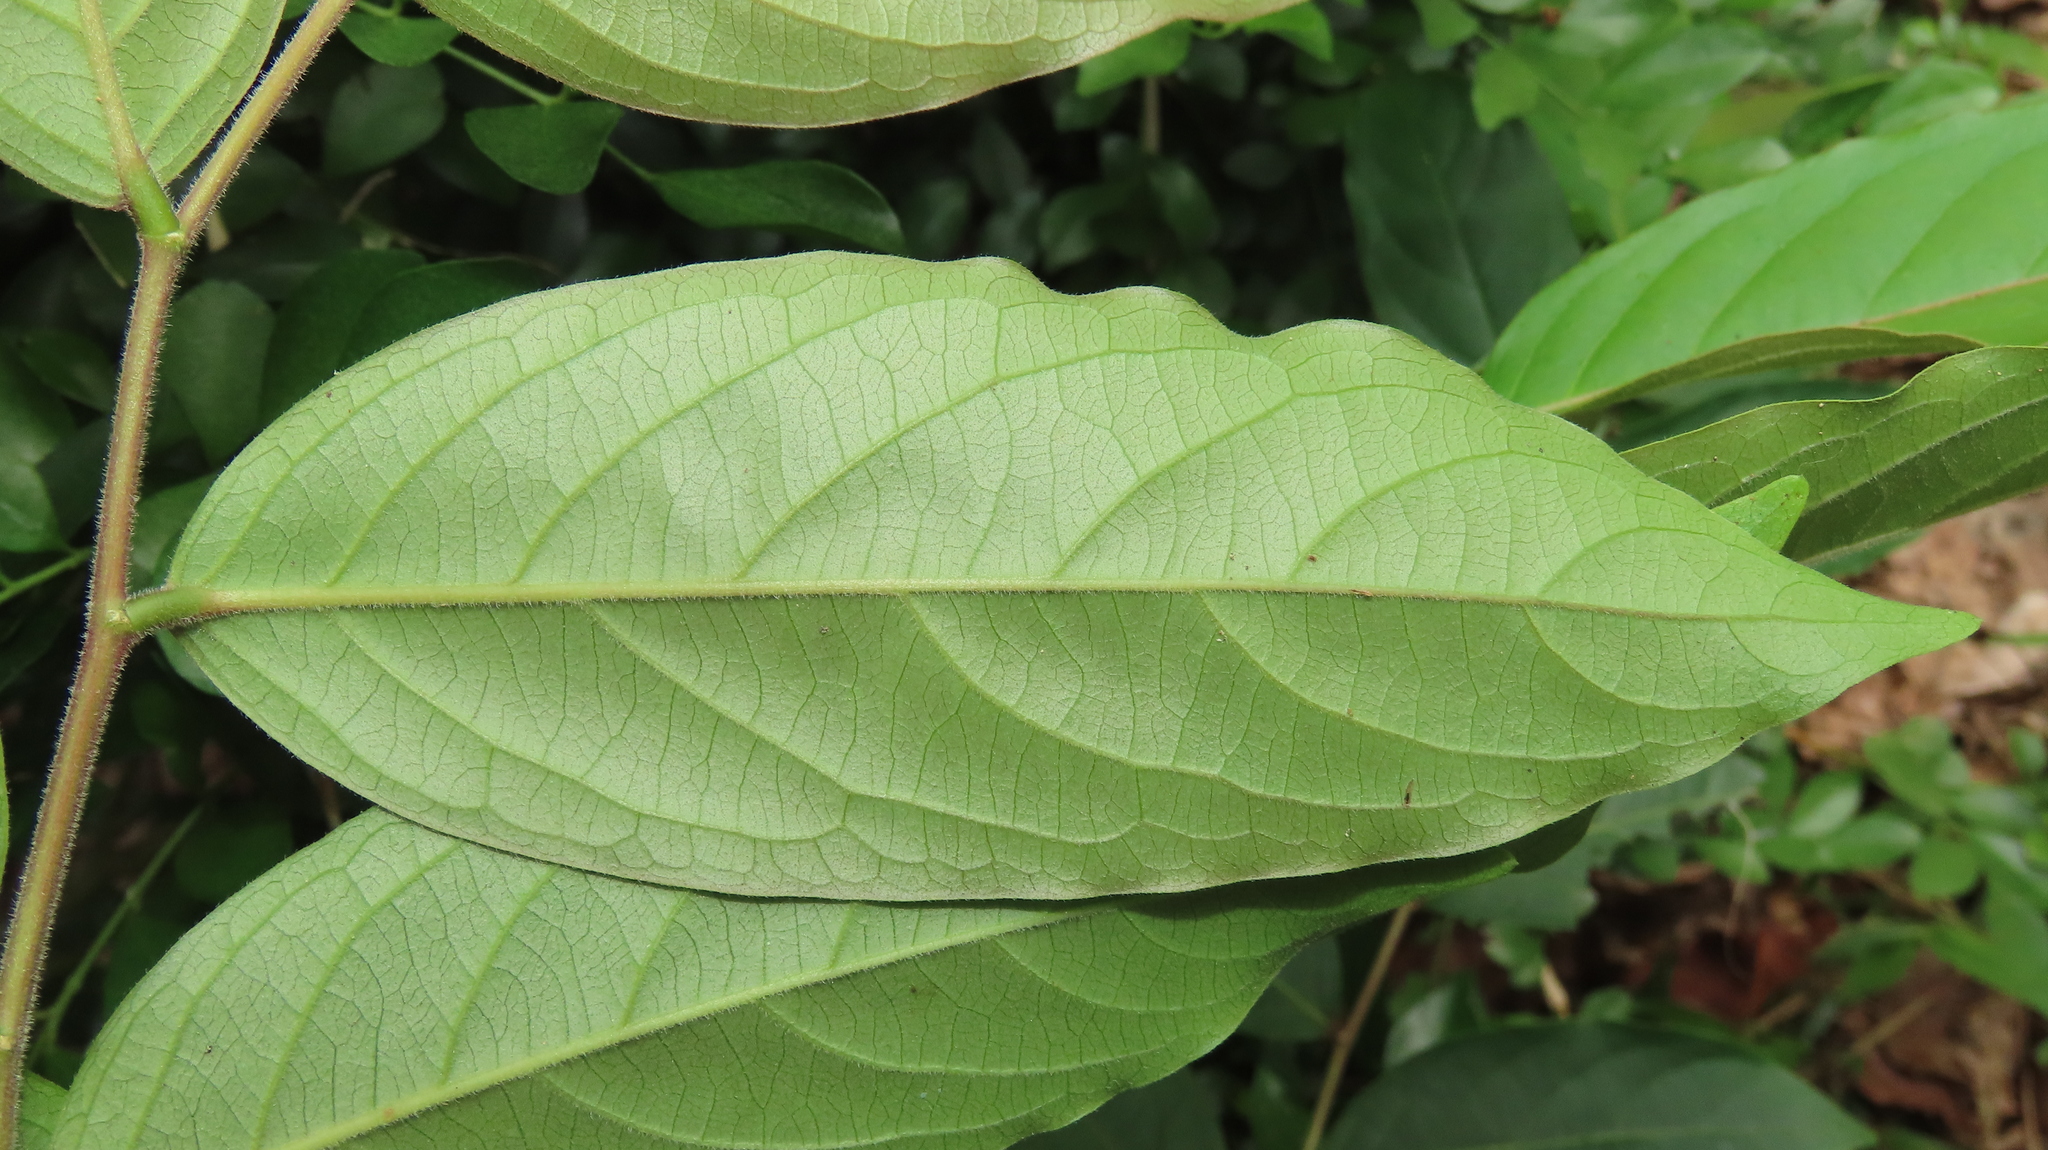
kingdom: Plantae
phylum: Tracheophyta
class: Magnoliopsida
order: Malpighiales
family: Phyllanthaceae
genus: Glochidion
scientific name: Glochidion philippicum
